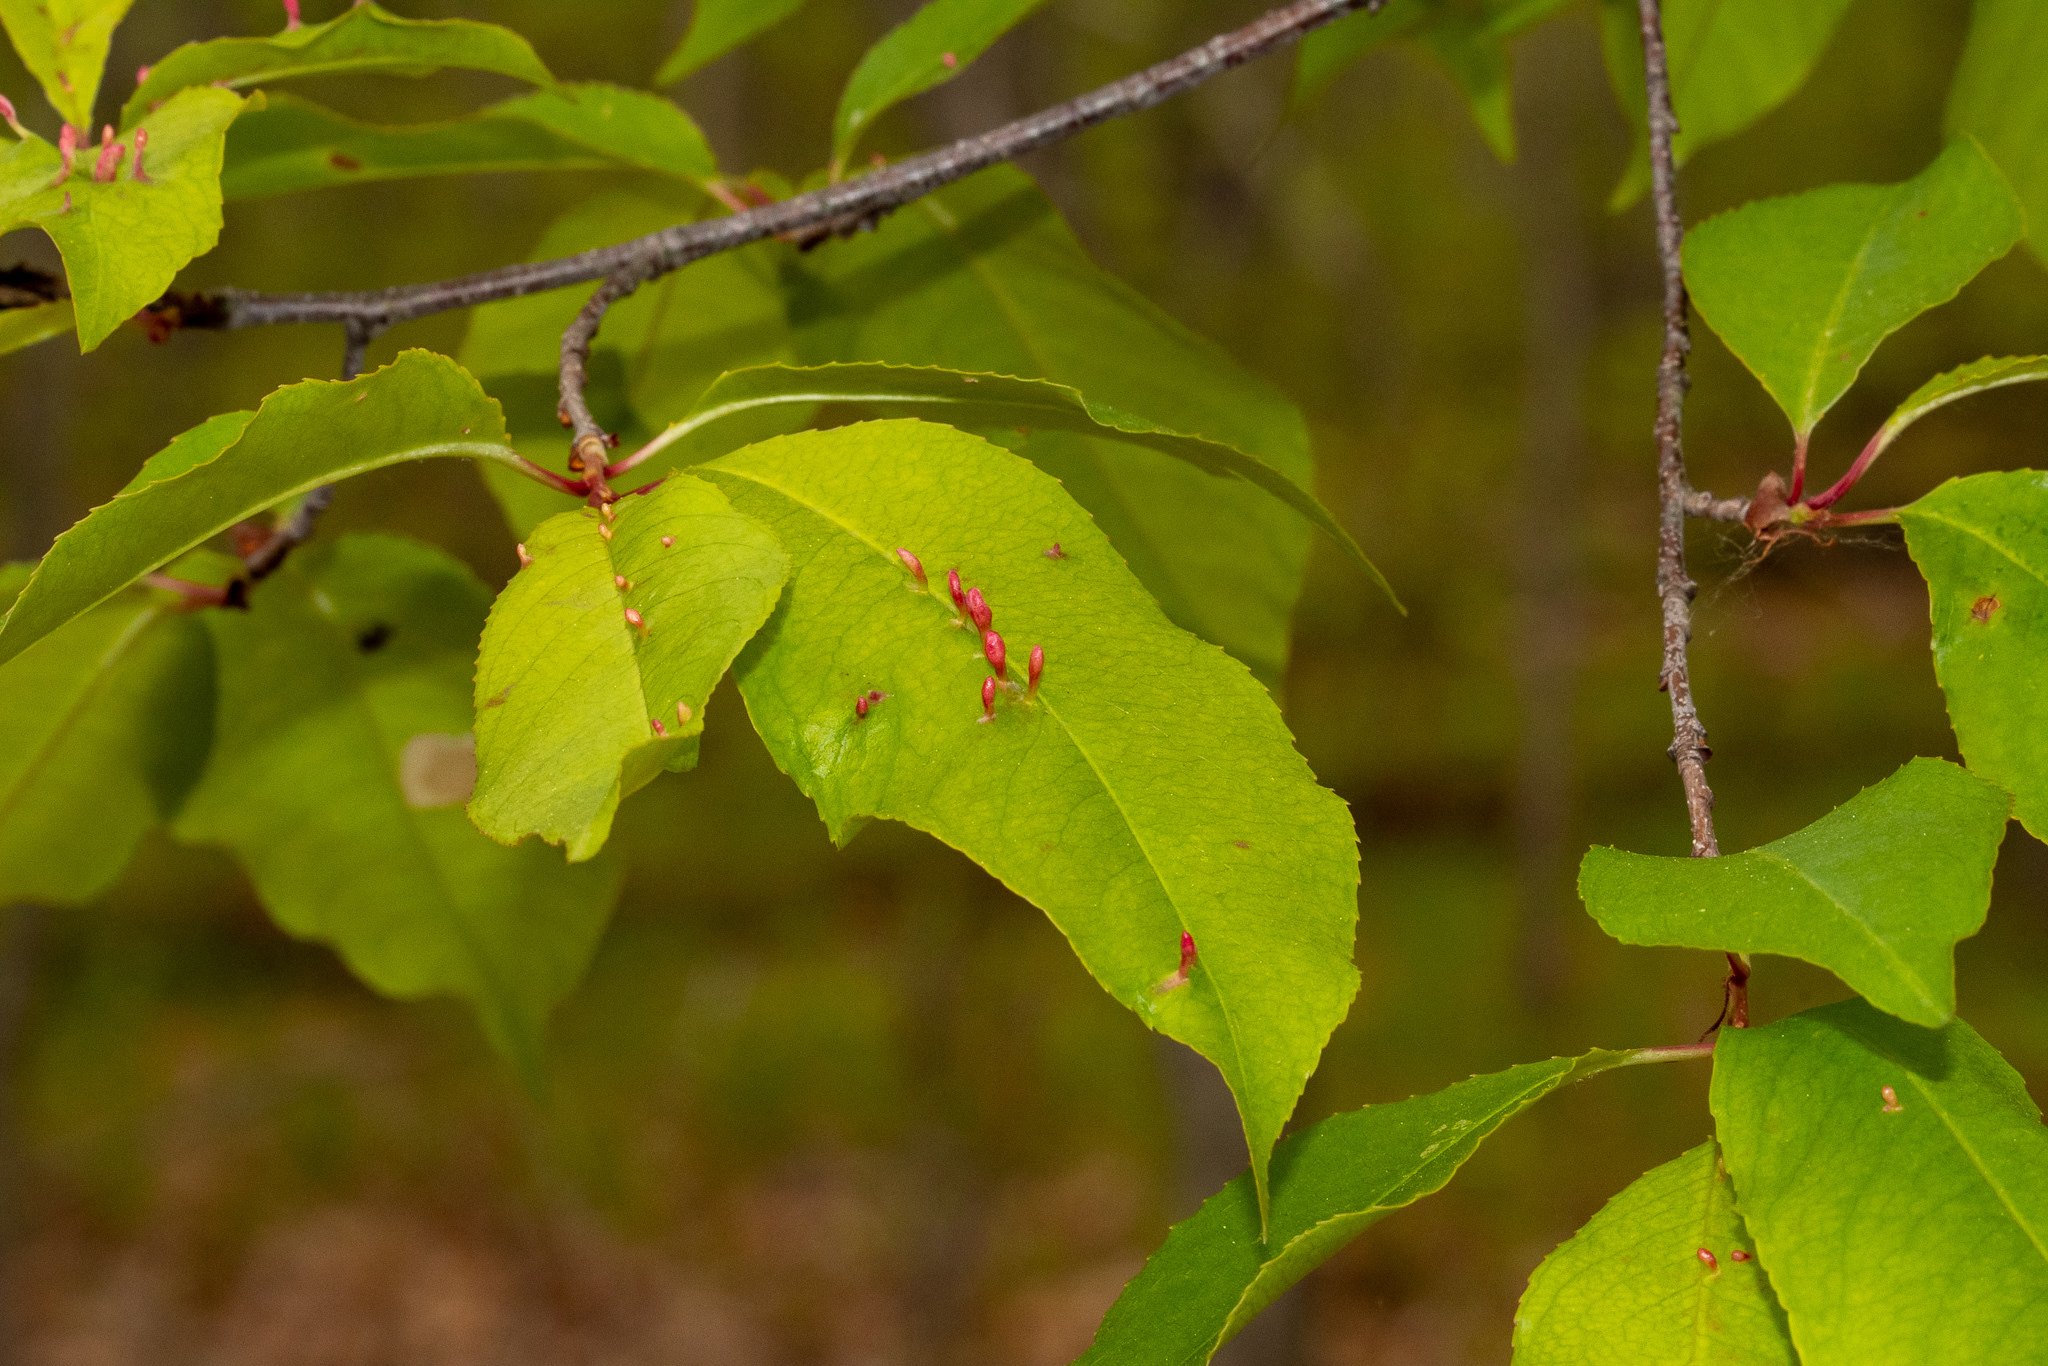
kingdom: Animalia
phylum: Arthropoda
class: Arachnida
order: Trombidiformes
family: Eriophyidae
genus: Eriophyes
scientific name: Eriophyes
